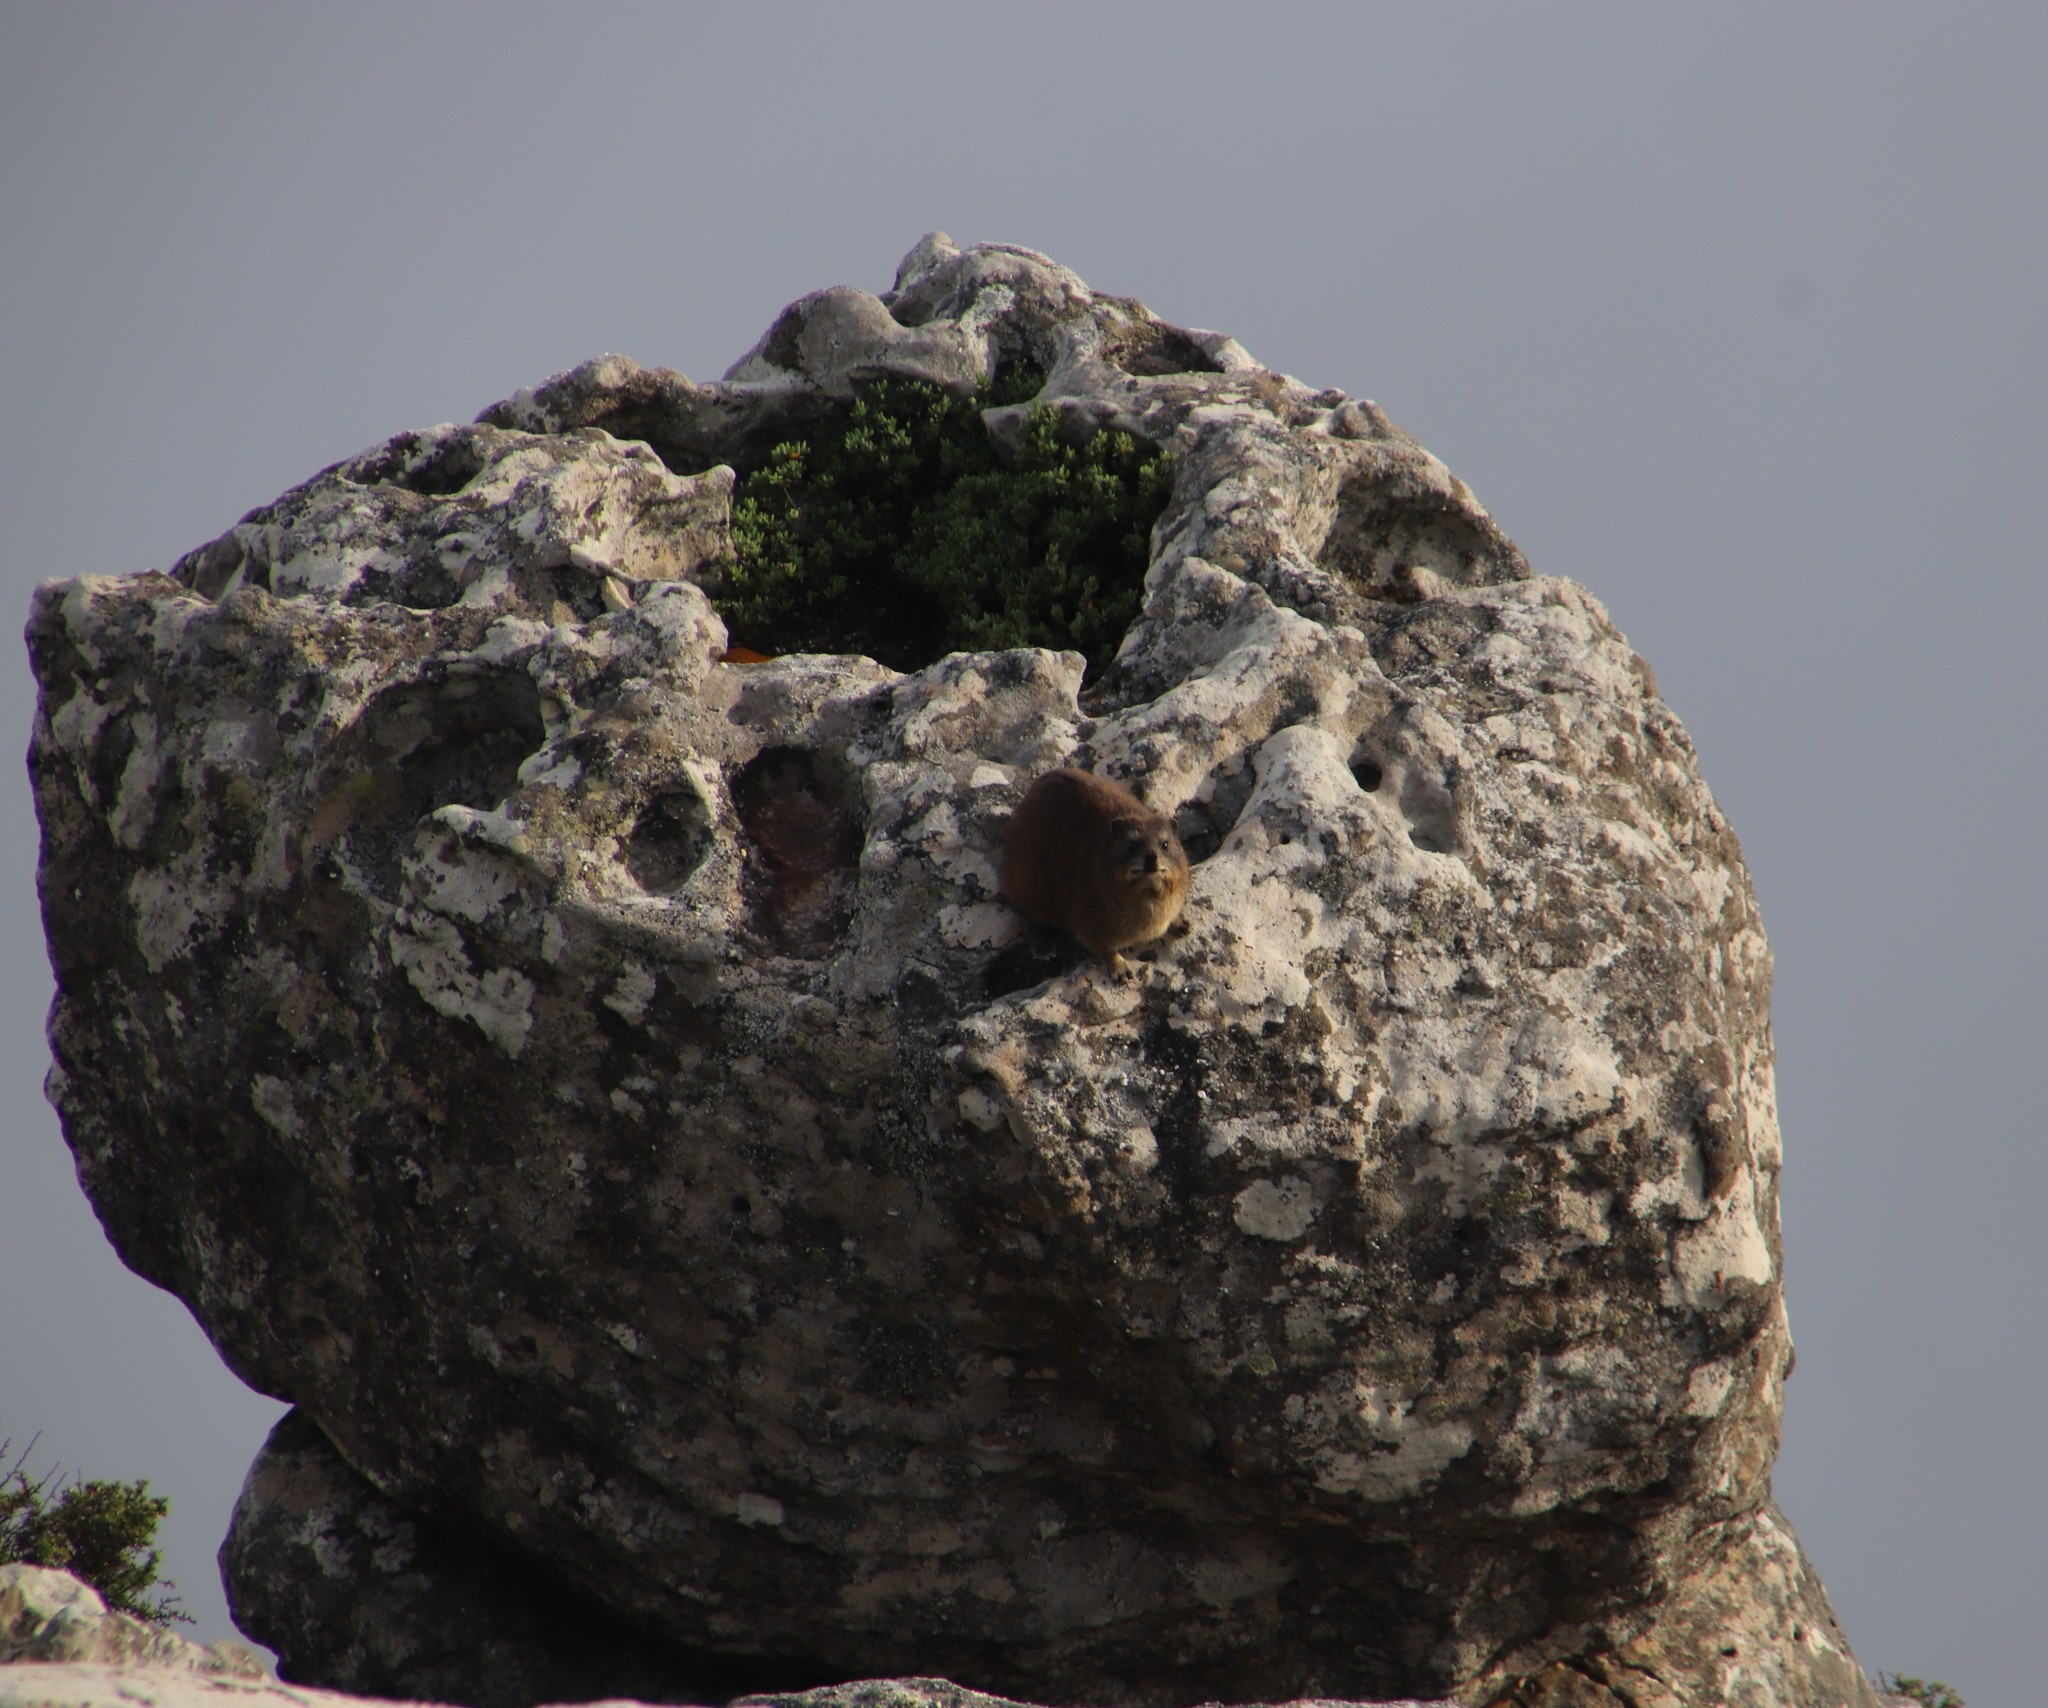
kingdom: Animalia
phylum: Chordata
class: Mammalia
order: Hyracoidea
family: Procaviidae
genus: Procavia
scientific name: Procavia capensis
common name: Rock hyrax
